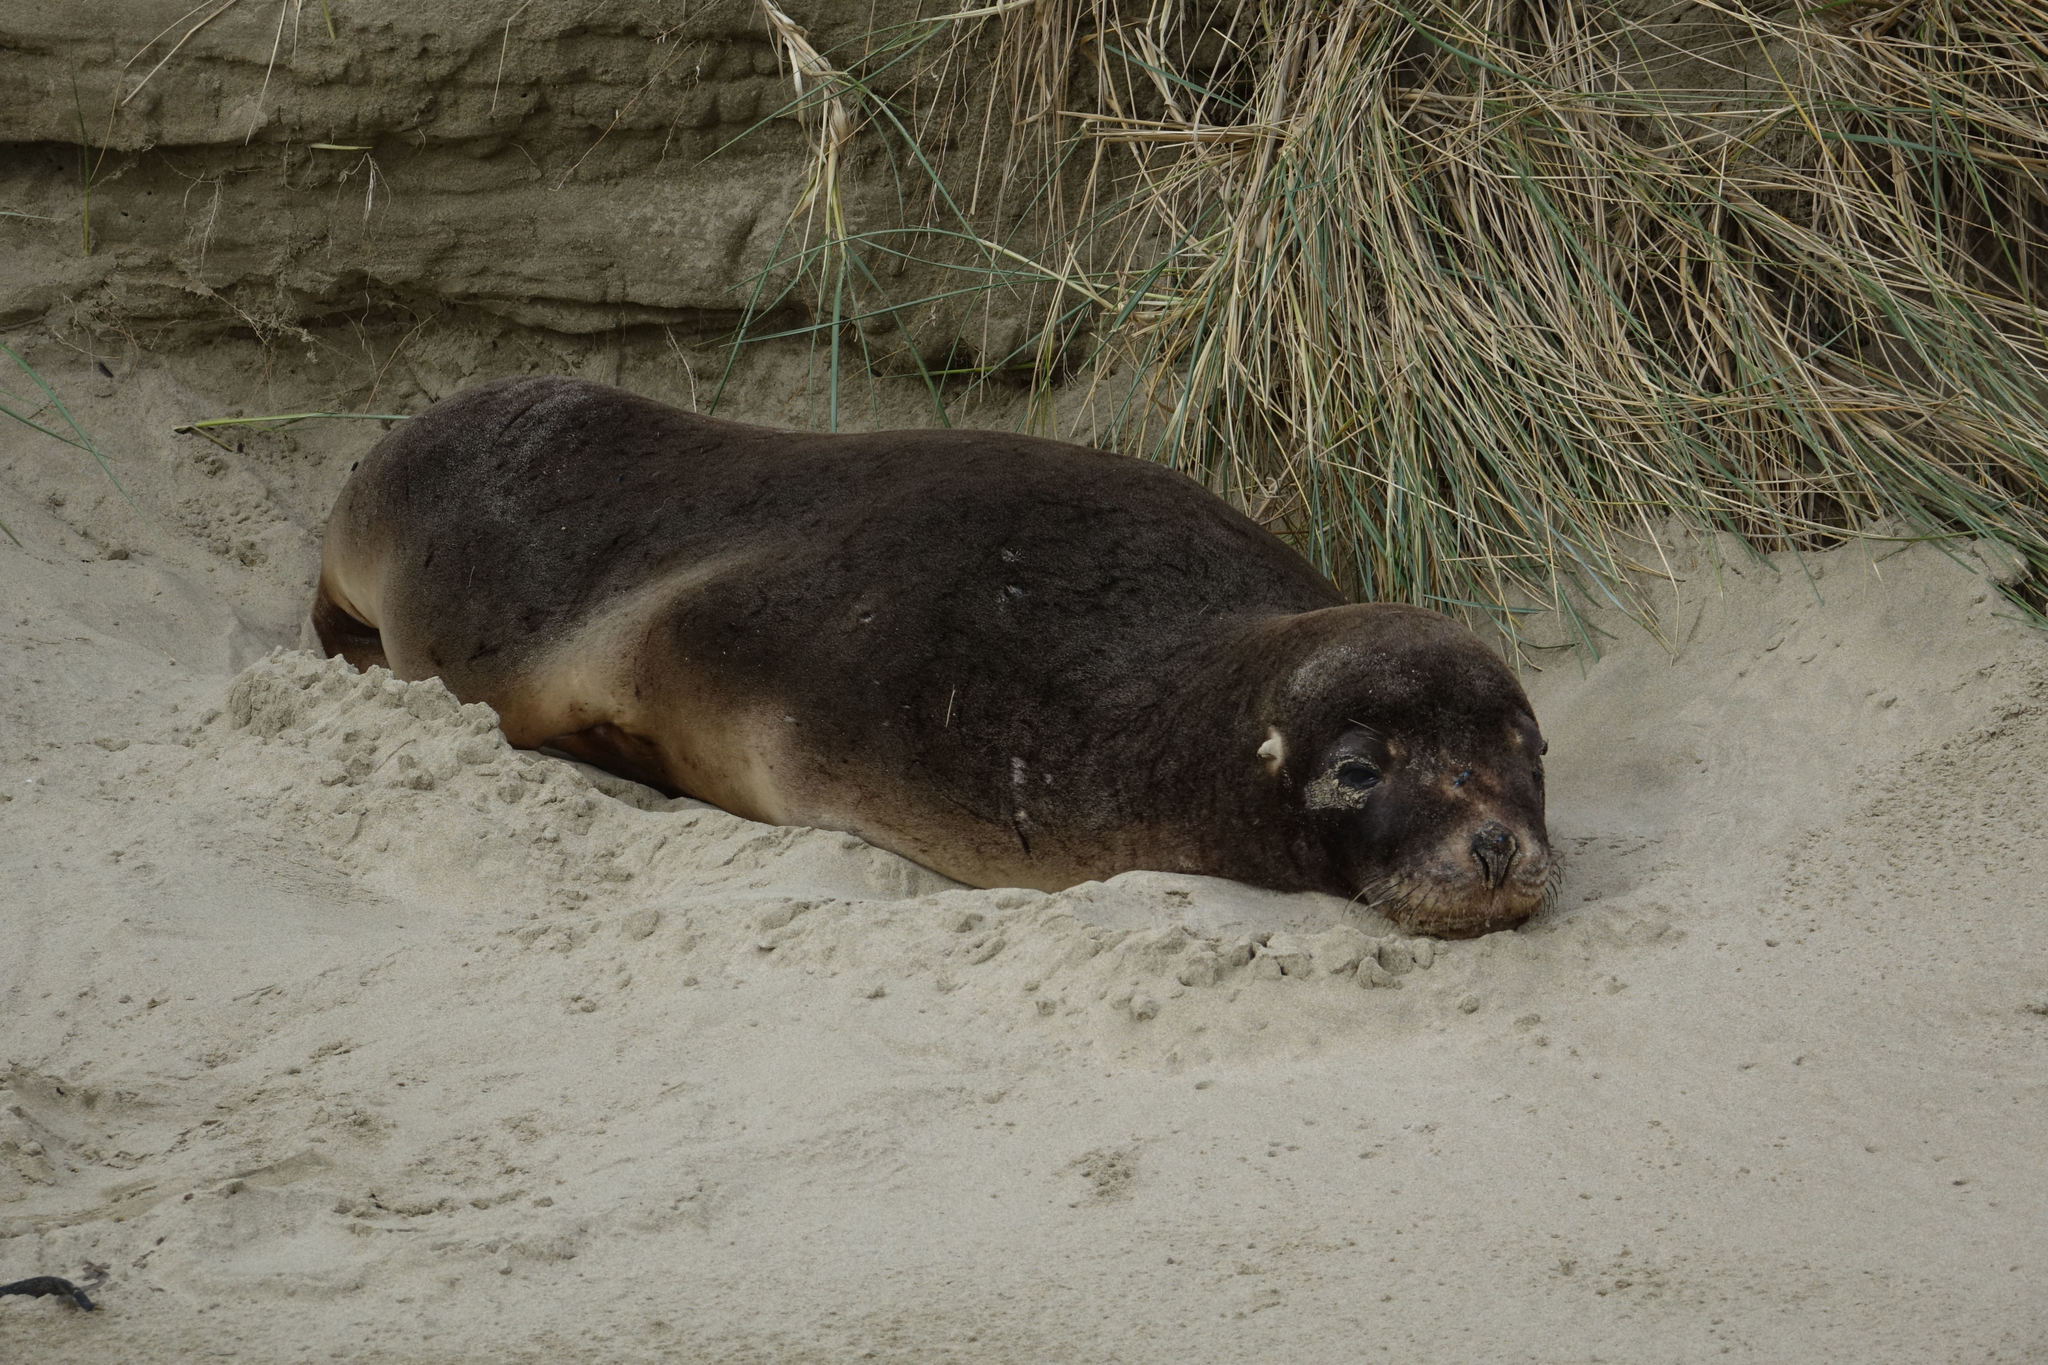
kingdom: Animalia
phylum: Chordata
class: Mammalia
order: Carnivora
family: Otariidae
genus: Phocarctos
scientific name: Phocarctos hookeri
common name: New zealand sea lion
